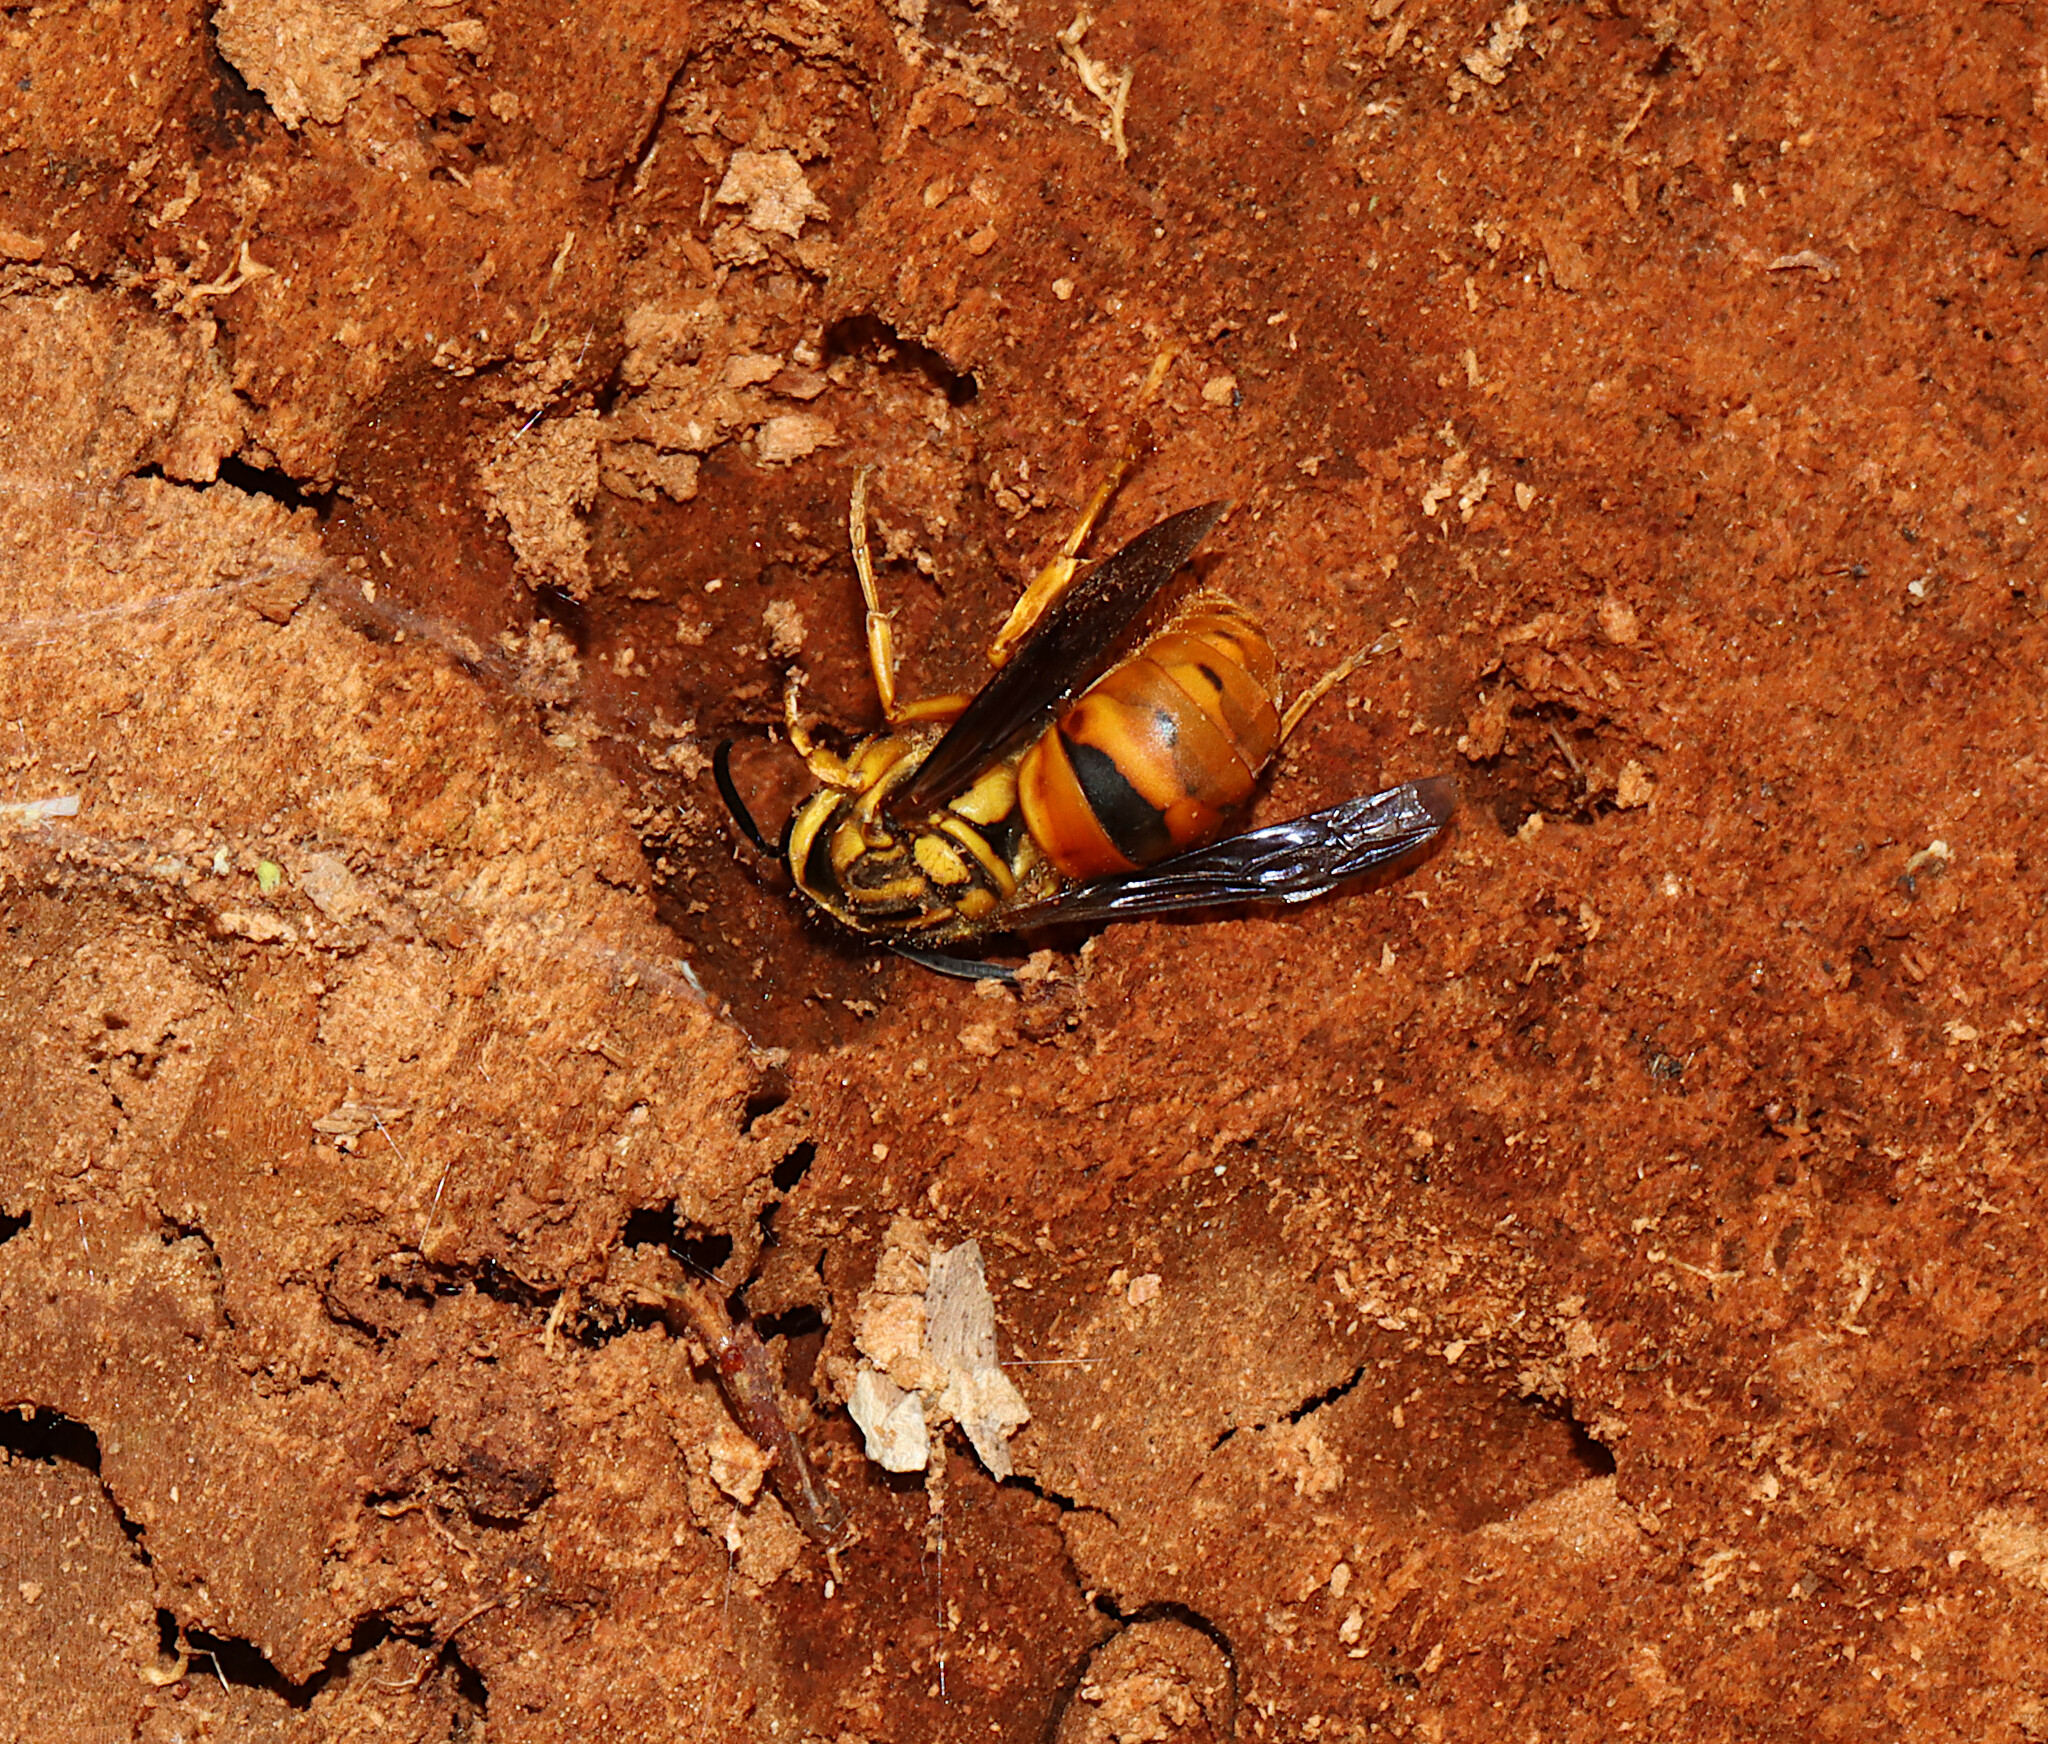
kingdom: Animalia
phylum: Arthropoda
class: Insecta
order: Hymenoptera
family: Vespidae
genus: Vespula
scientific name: Vespula squamosa
